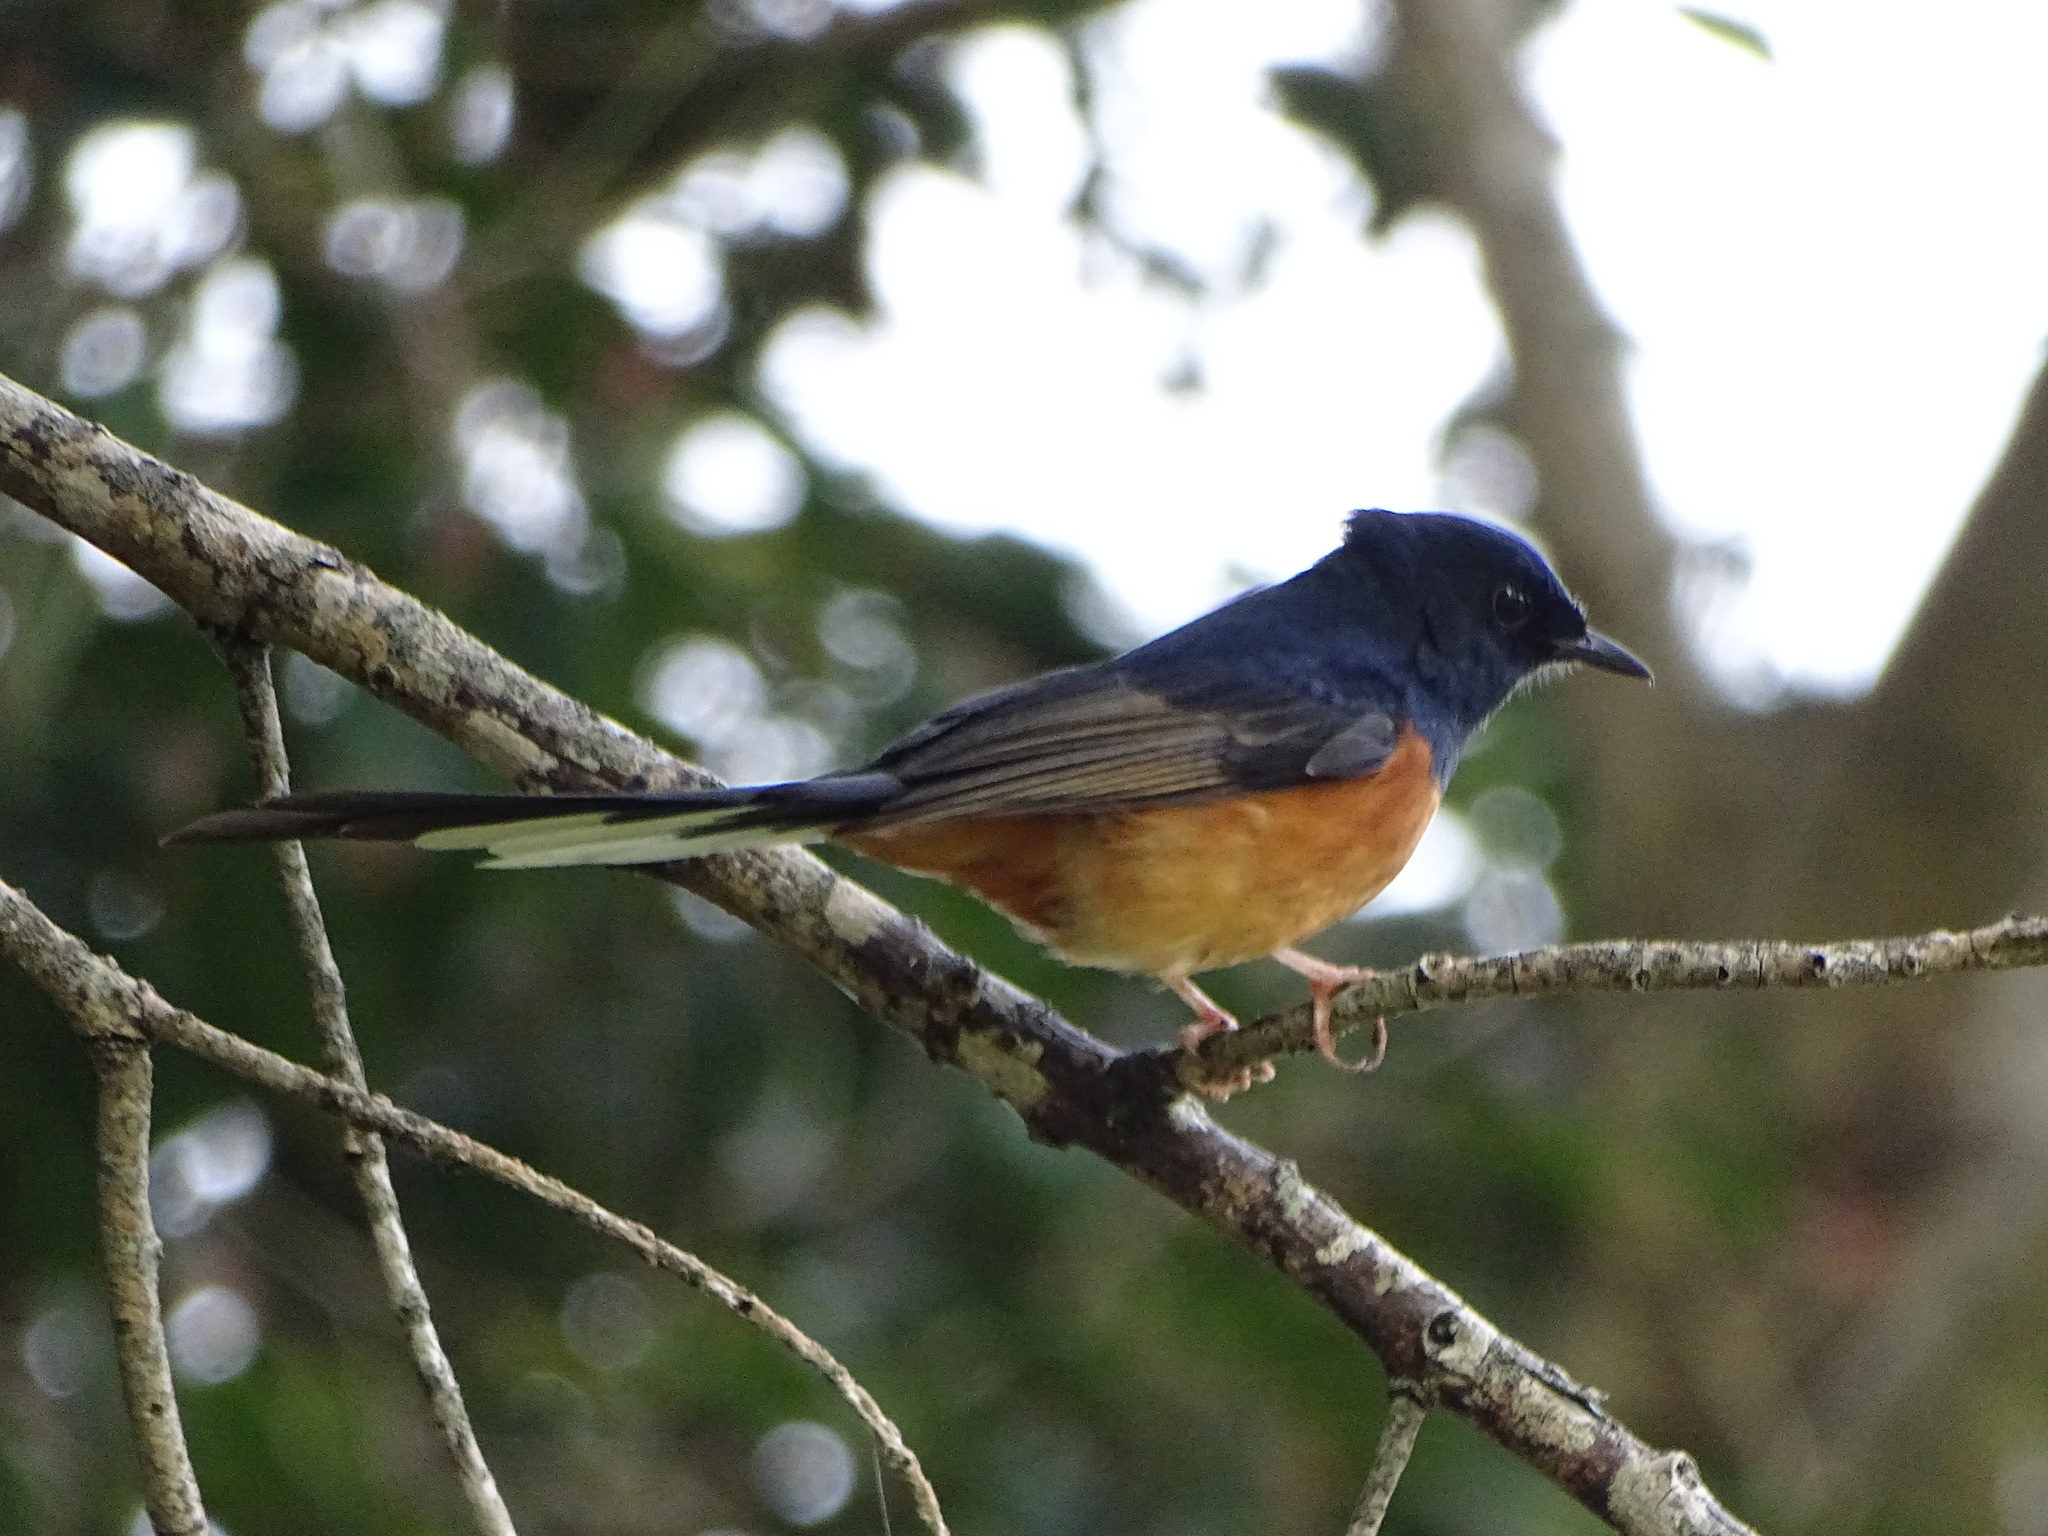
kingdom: Animalia
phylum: Chordata
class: Aves
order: Passeriformes
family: Muscicapidae
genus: Copsychus
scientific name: Copsychus malabaricus
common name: White-rumped shama
